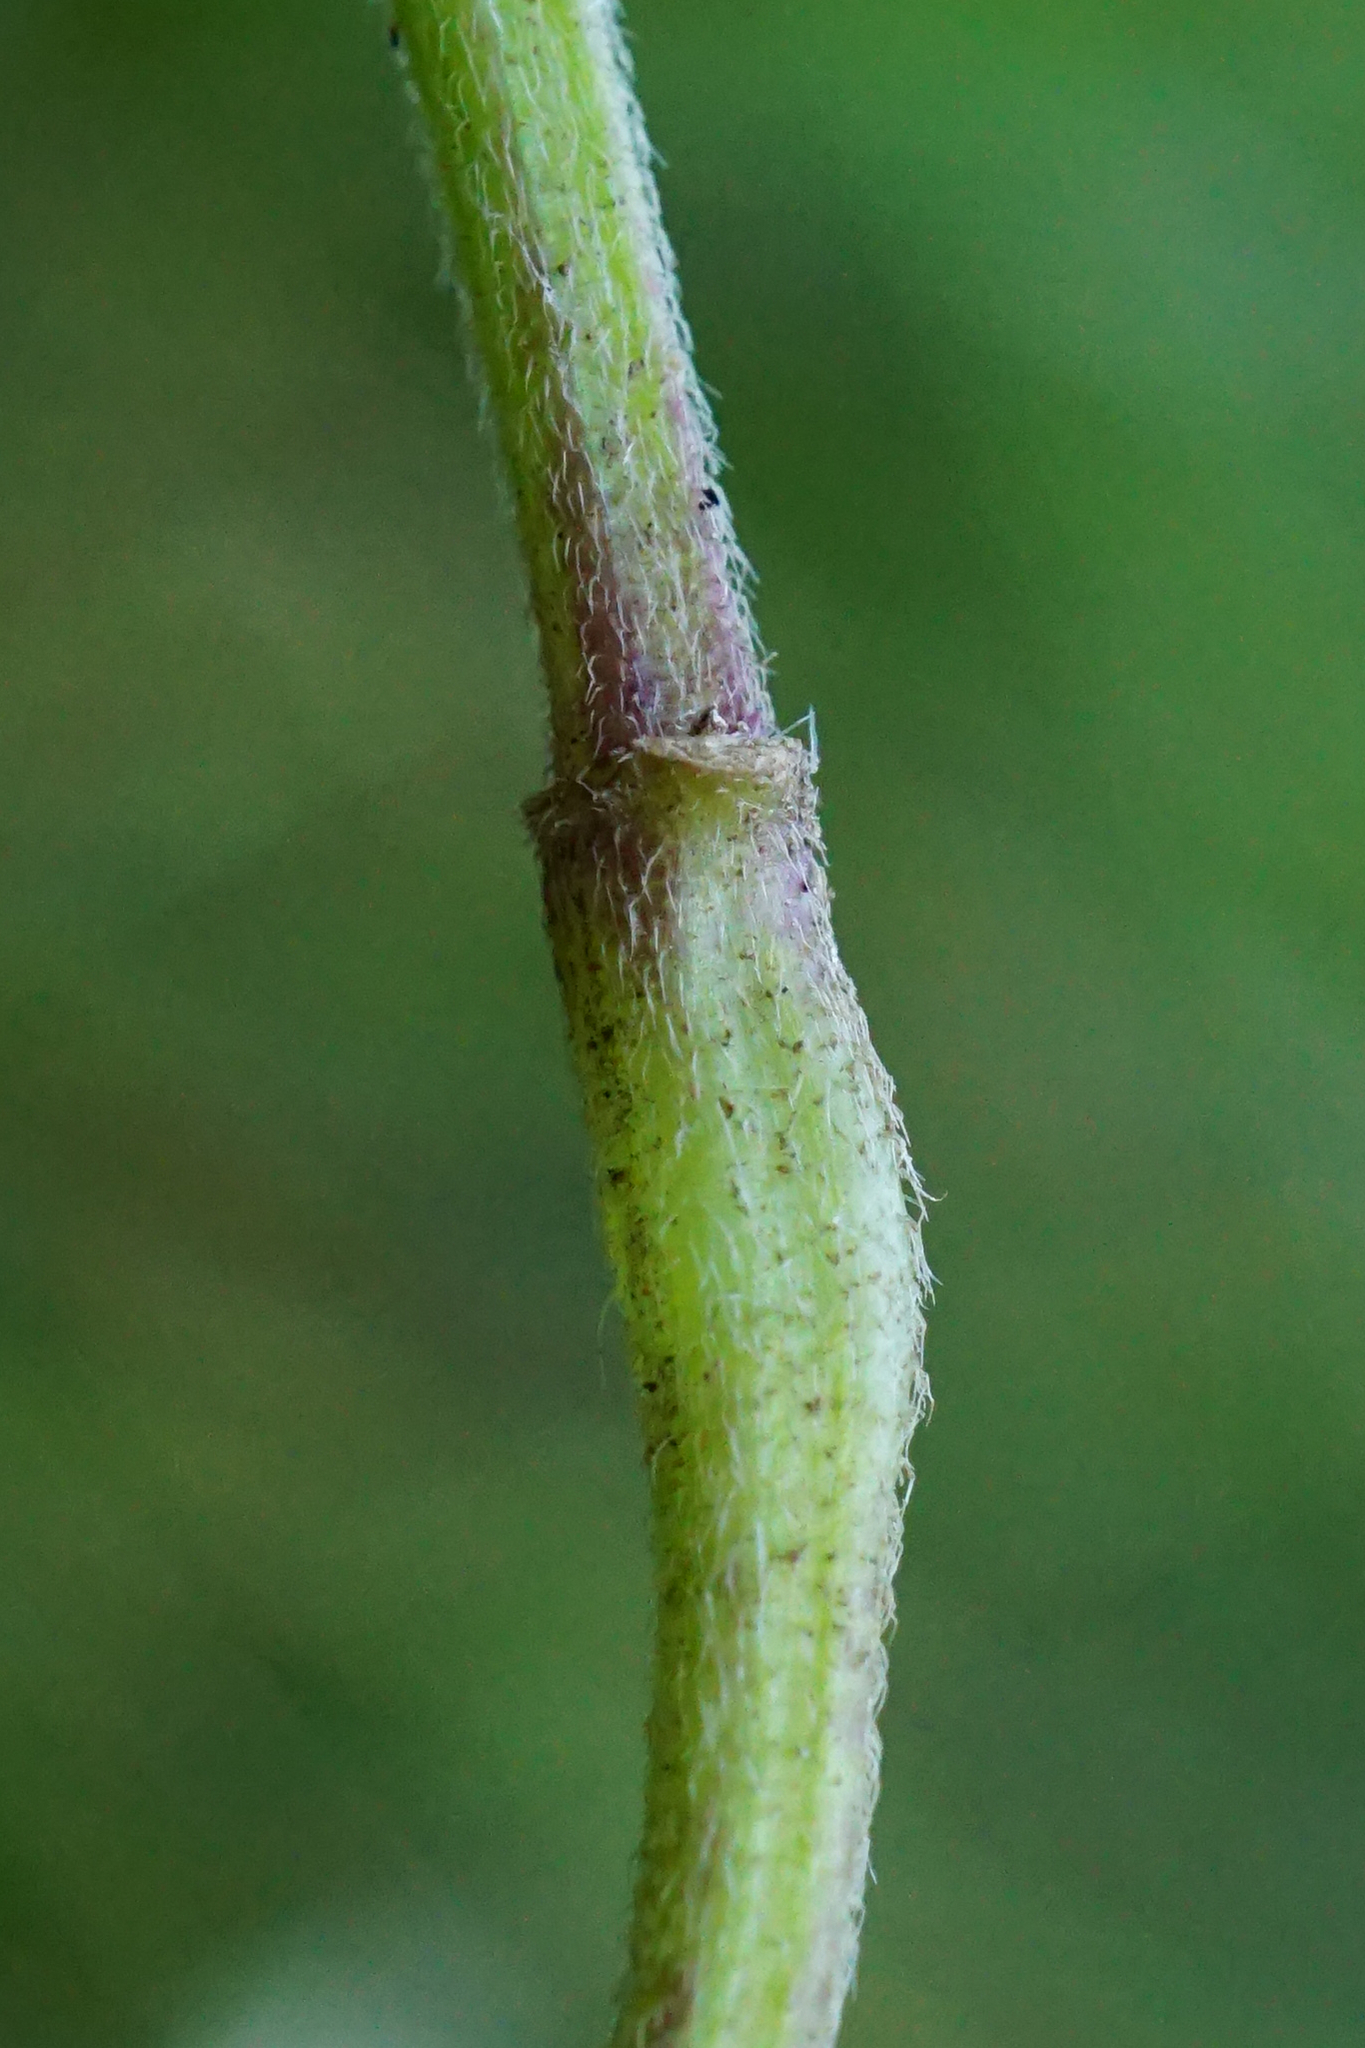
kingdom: Plantae
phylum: Tracheophyta
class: Magnoliopsida
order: Lamiales
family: Lamiaceae
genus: Galeopsis
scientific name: Galeopsis pubescens
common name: Downy hemp-nettle
